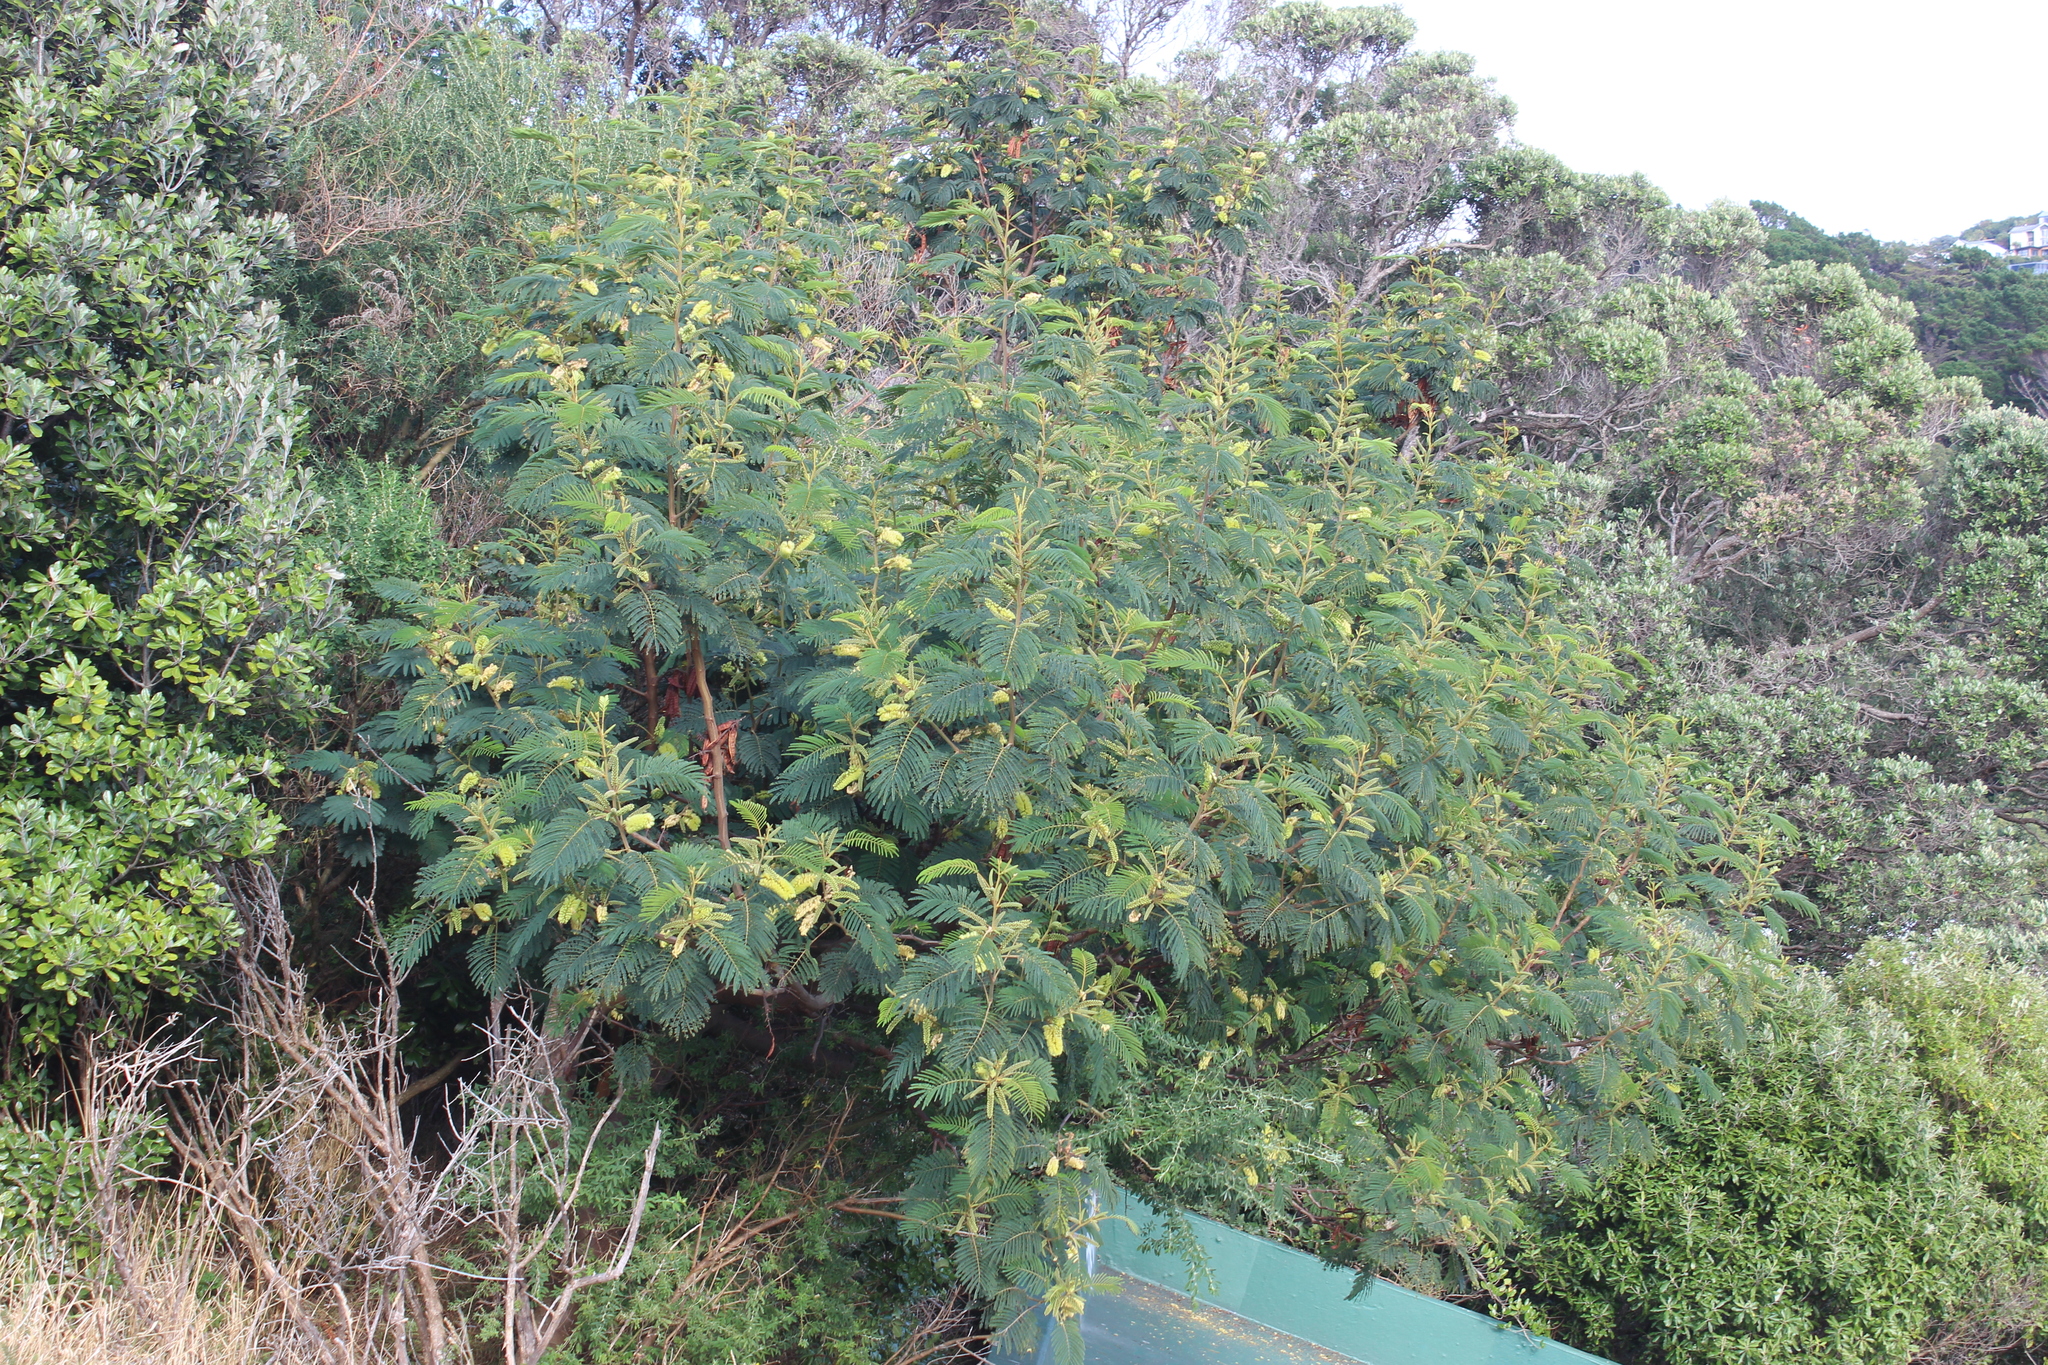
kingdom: Plantae
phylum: Tracheophyta
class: Magnoliopsida
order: Fabales
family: Fabaceae
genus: Paraserianthes
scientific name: Paraserianthes lophantha
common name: Plume albizia
